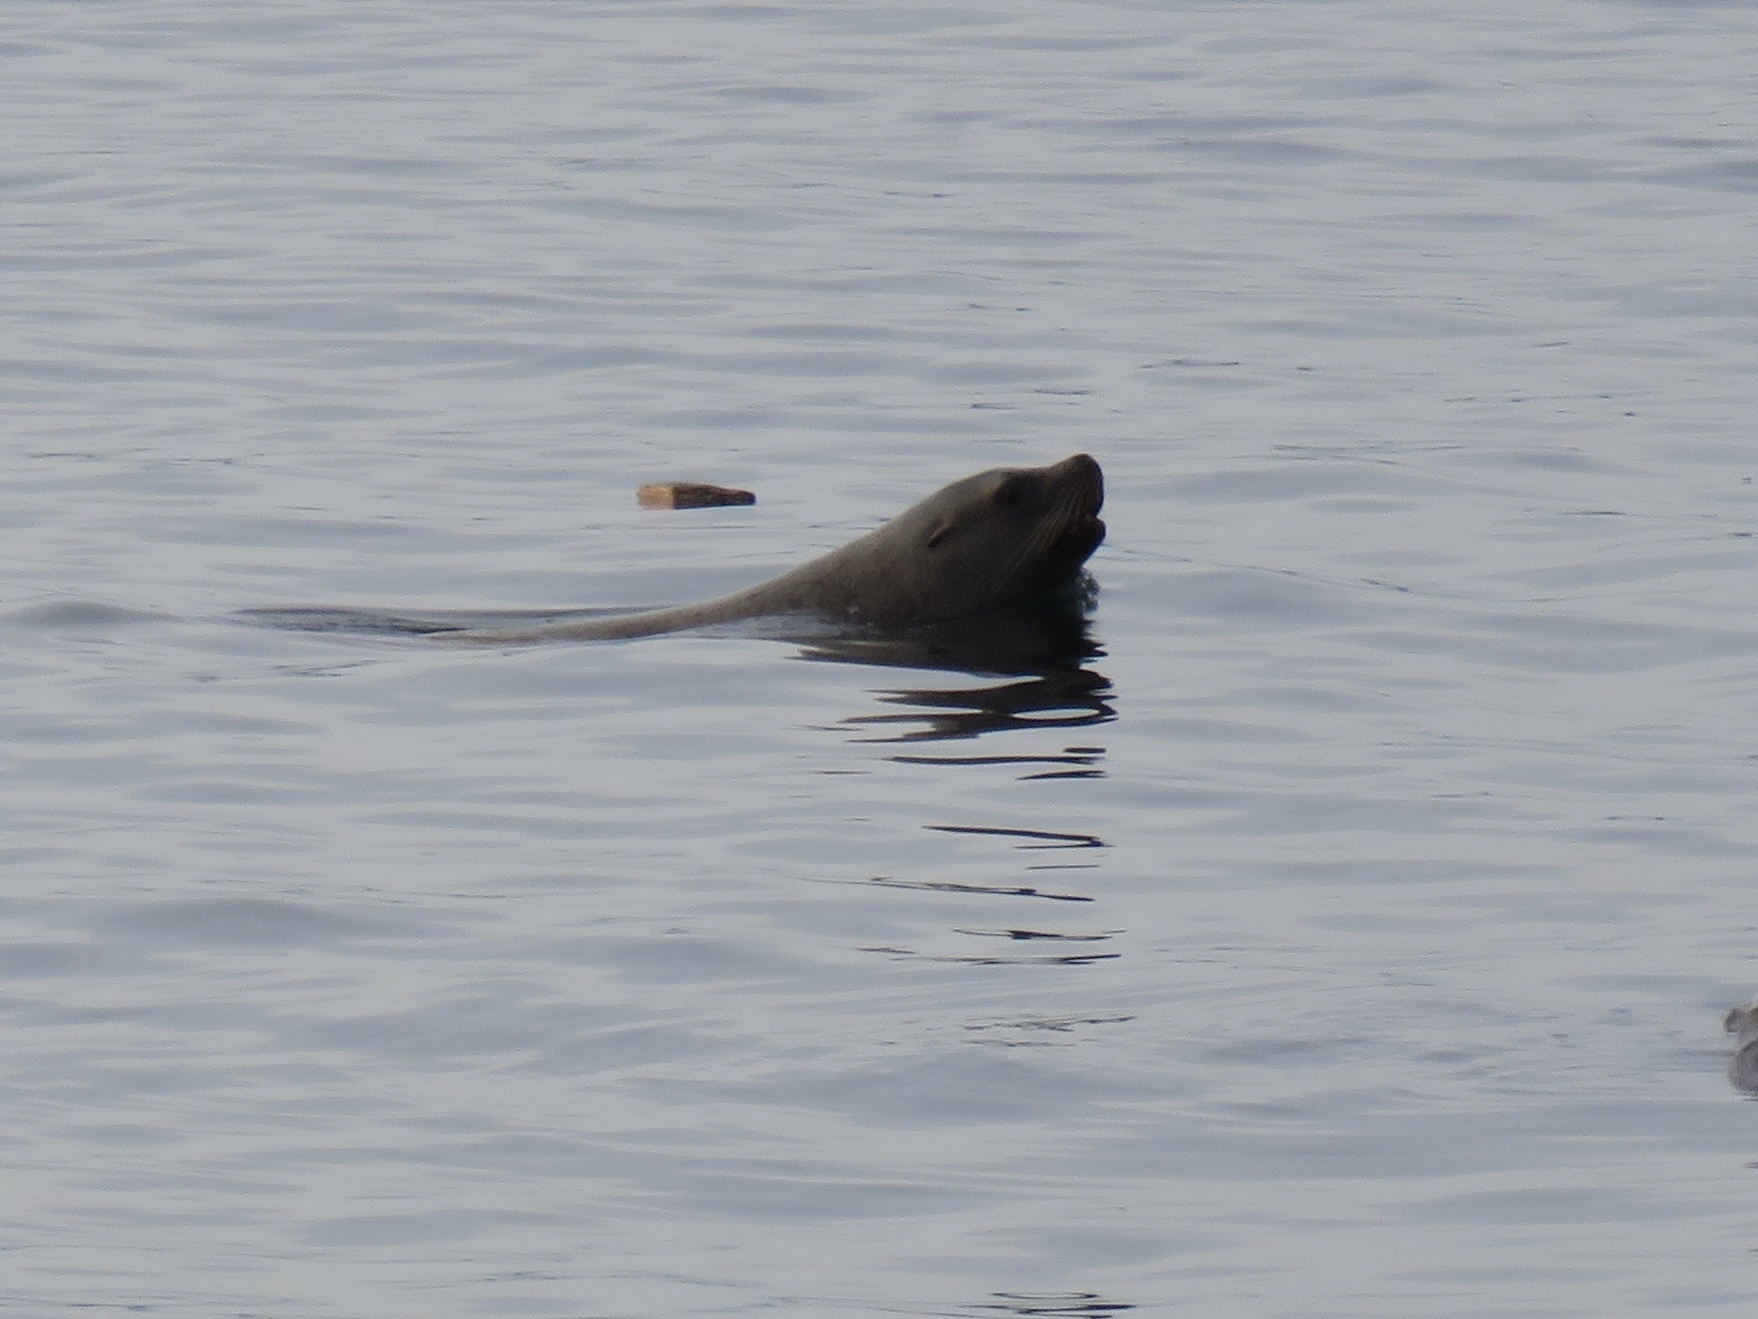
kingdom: Animalia
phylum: Chordata
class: Mammalia
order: Carnivora
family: Otariidae
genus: Eumetopias
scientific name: Eumetopias jubatus
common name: Steller sea lion
